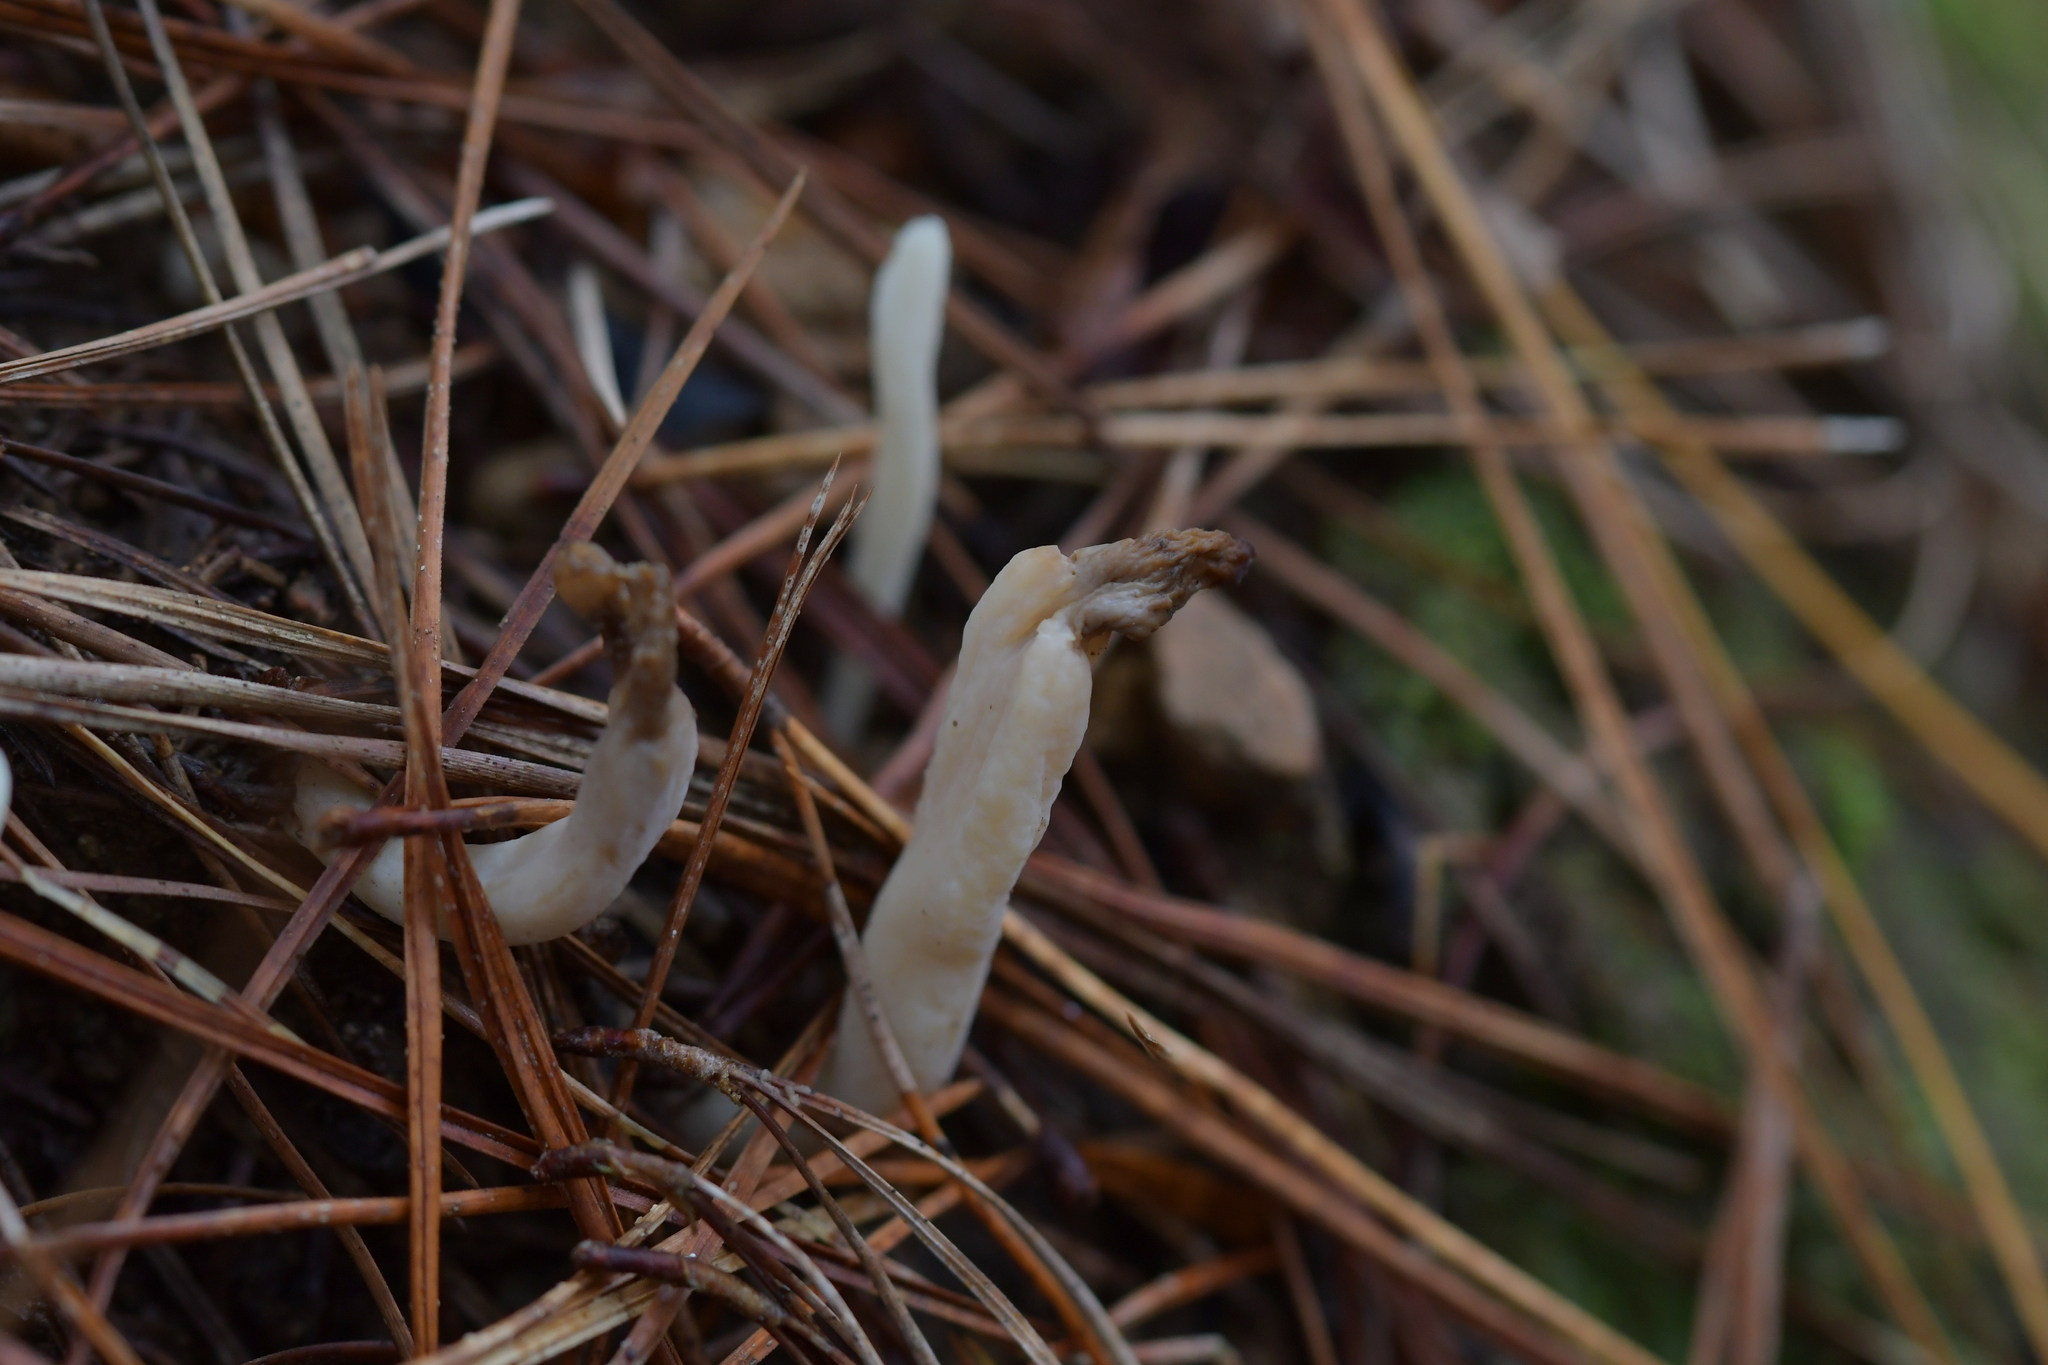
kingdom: Fungi
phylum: Basidiomycota
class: Agaricomycetes
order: Cantharellales
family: Hydnaceae
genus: Clavulina
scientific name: Clavulina rugosa
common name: Wrinkled club
